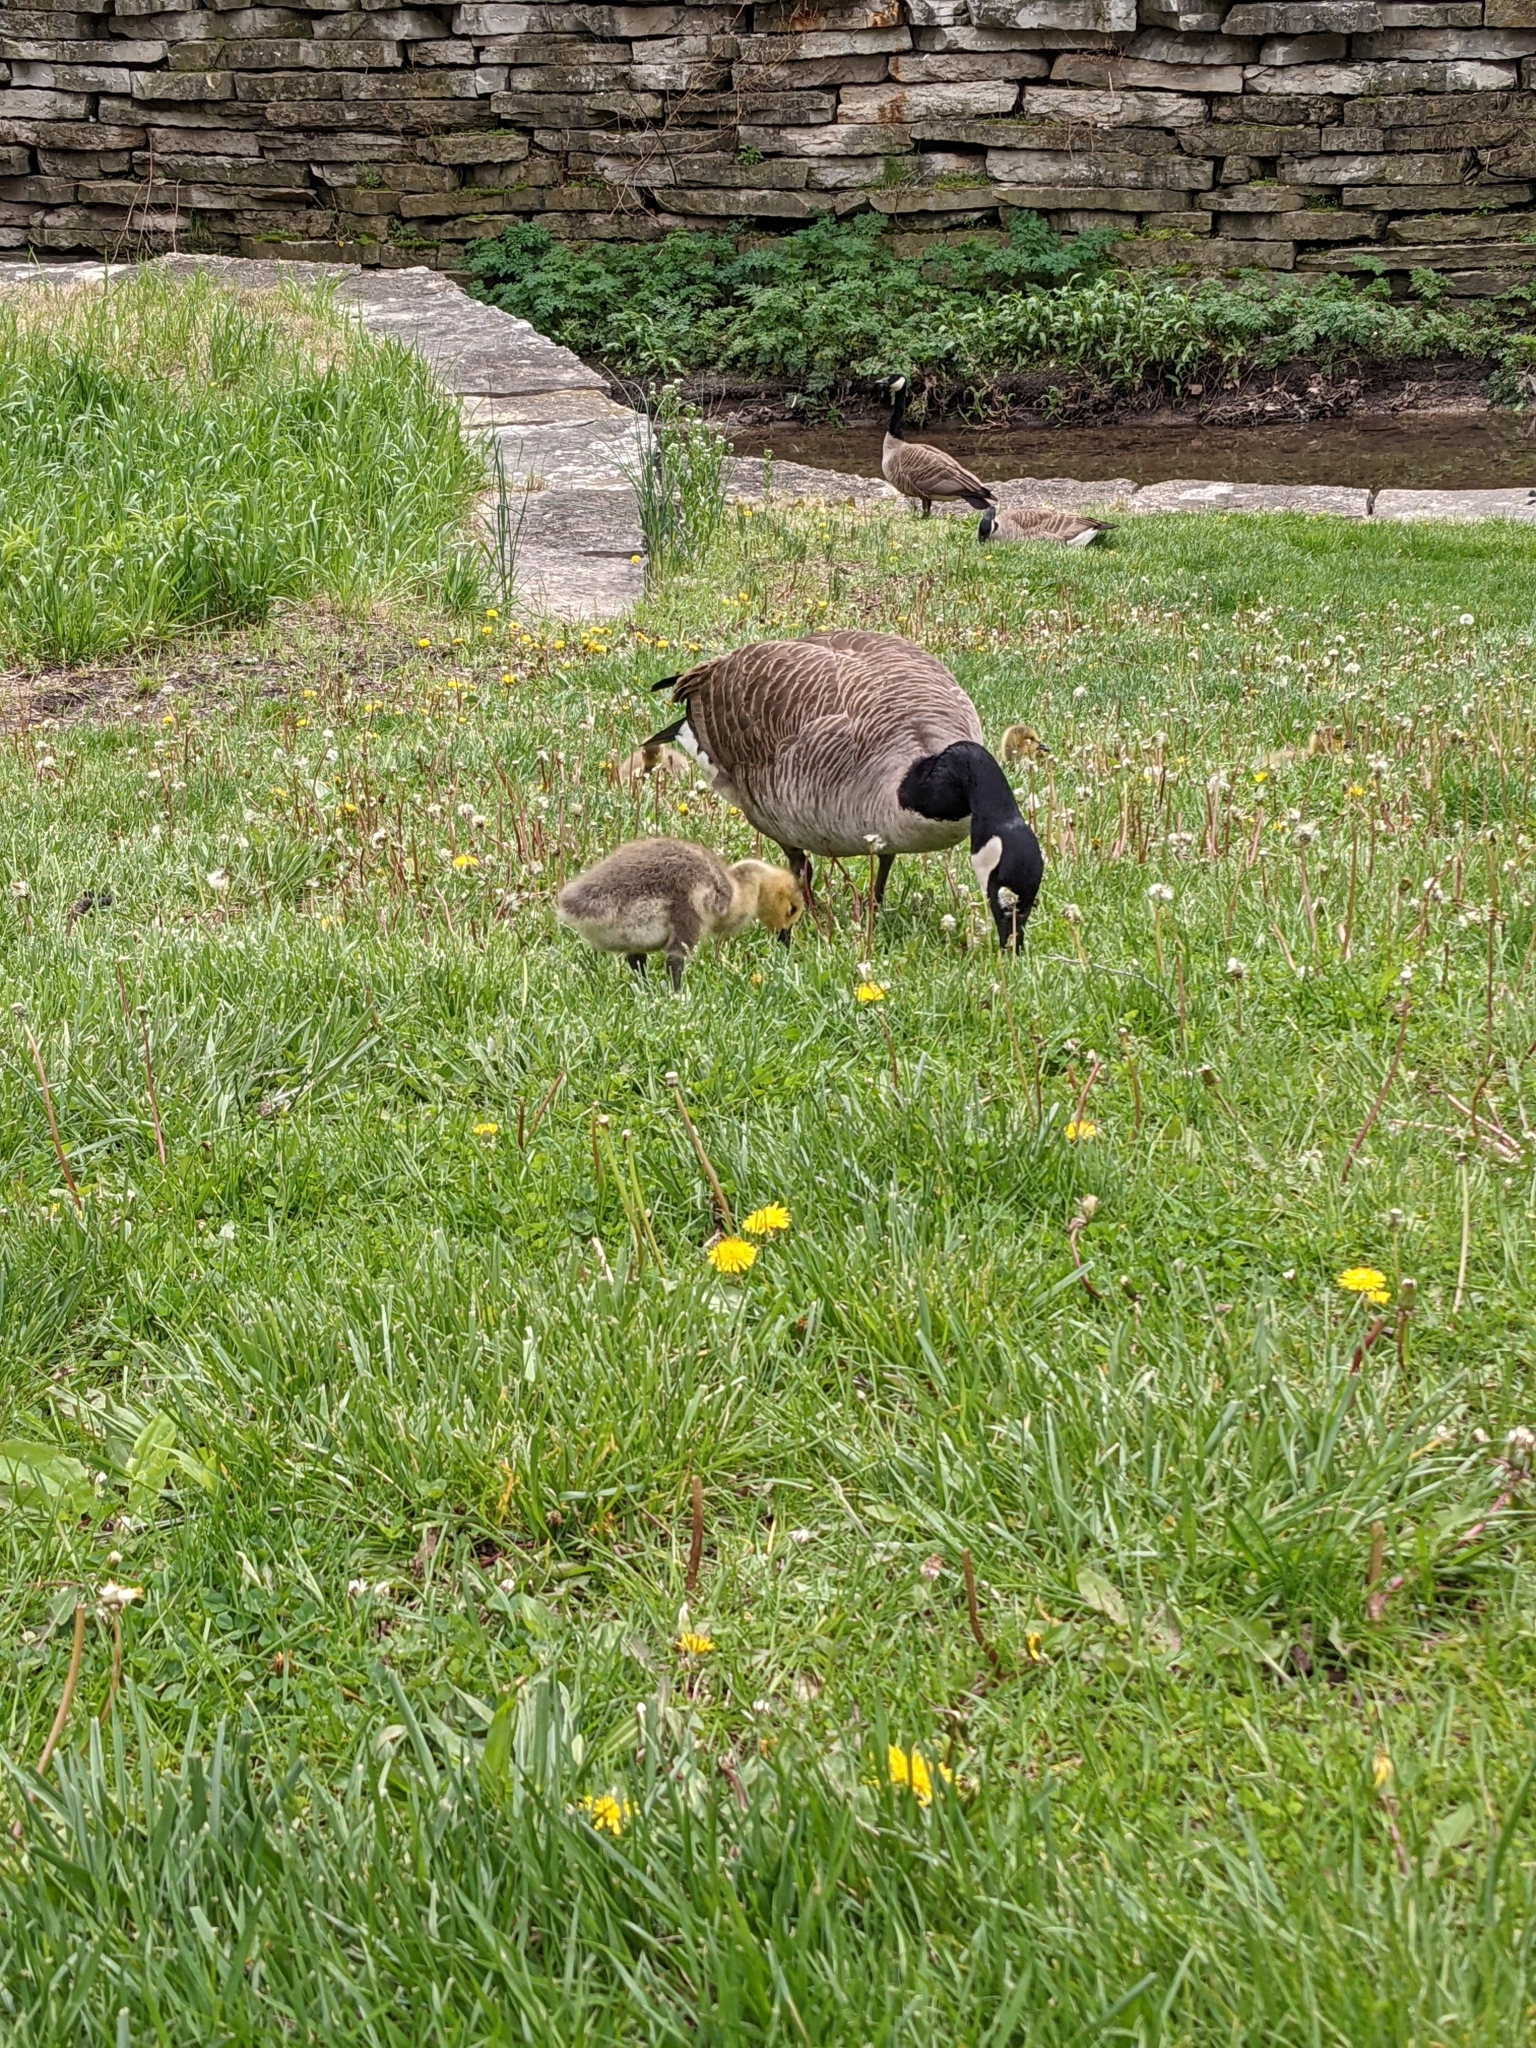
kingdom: Animalia
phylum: Chordata
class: Aves
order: Anseriformes
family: Anatidae
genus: Branta
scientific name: Branta canadensis
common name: Canada goose
